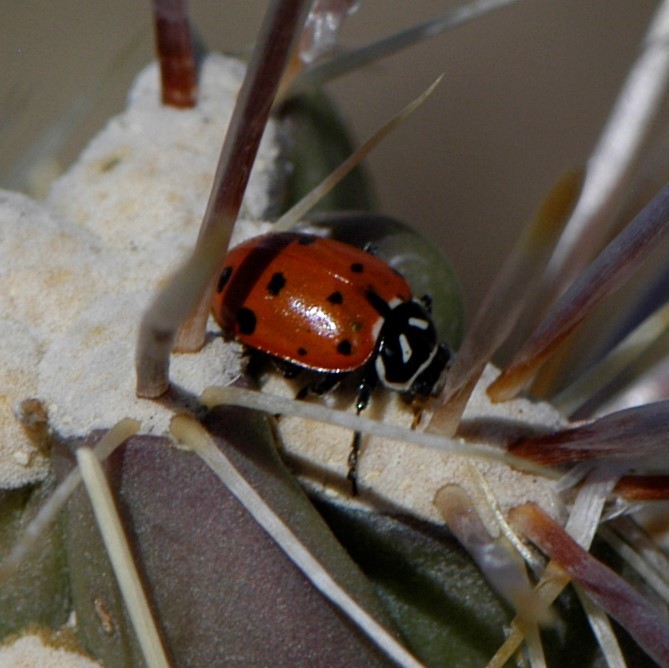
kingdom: Animalia
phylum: Arthropoda
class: Insecta
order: Coleoptera
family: Coccinellidae
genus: Hippodamia
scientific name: Hippodamia convergens
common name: Convergent lady beetle
